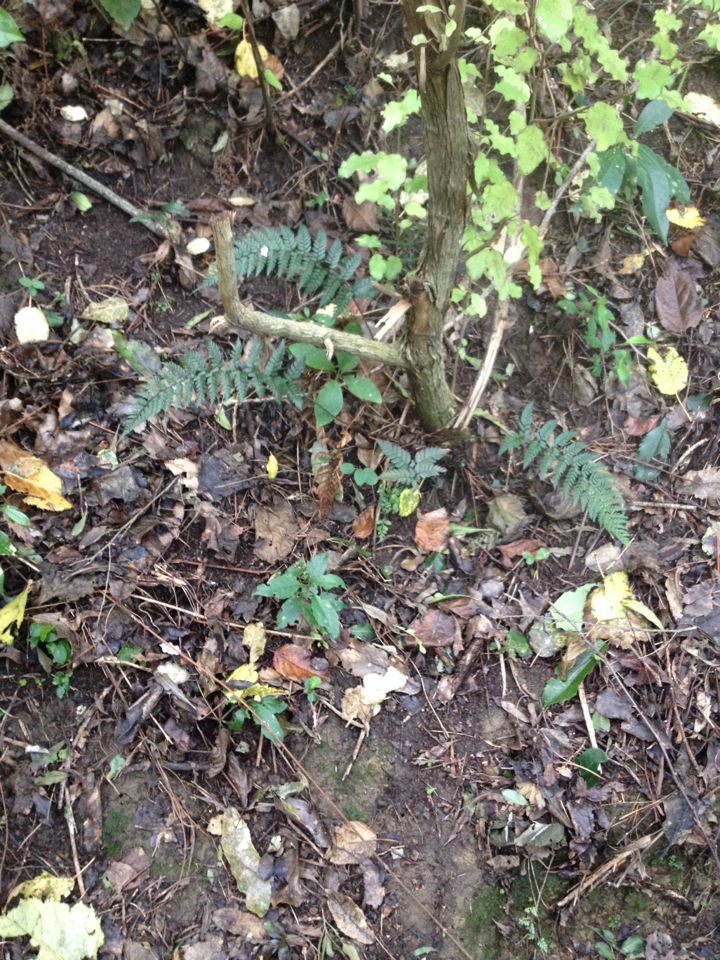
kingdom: Plantae
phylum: Tracheophyta
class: Polypodiopsida
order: Polypodiales
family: Dryopteridaceae
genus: Polystichum
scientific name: Polystichum neozelandicum
